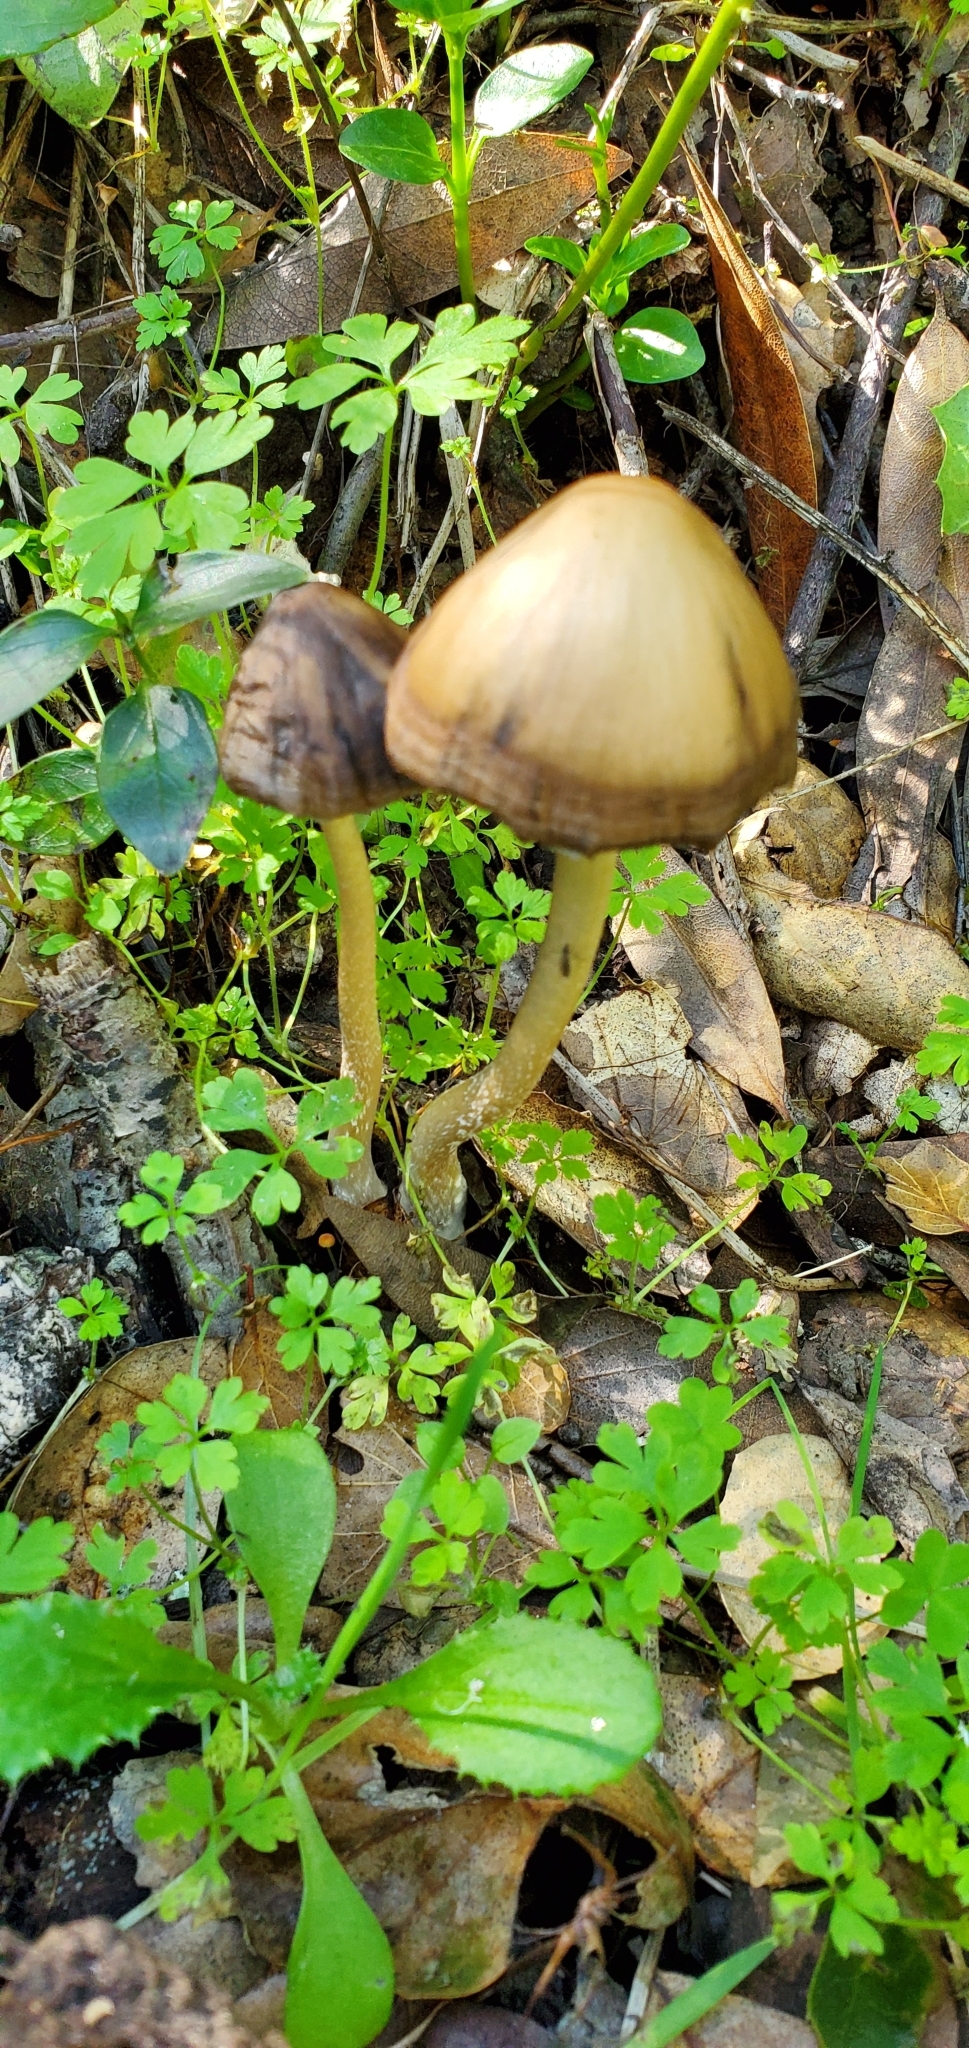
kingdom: Fungi
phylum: Basidiomycota
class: Agaricomycetes
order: Agaricales
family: Psathyrellaceae
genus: Psathyrella
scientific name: Psathyrella longipes
